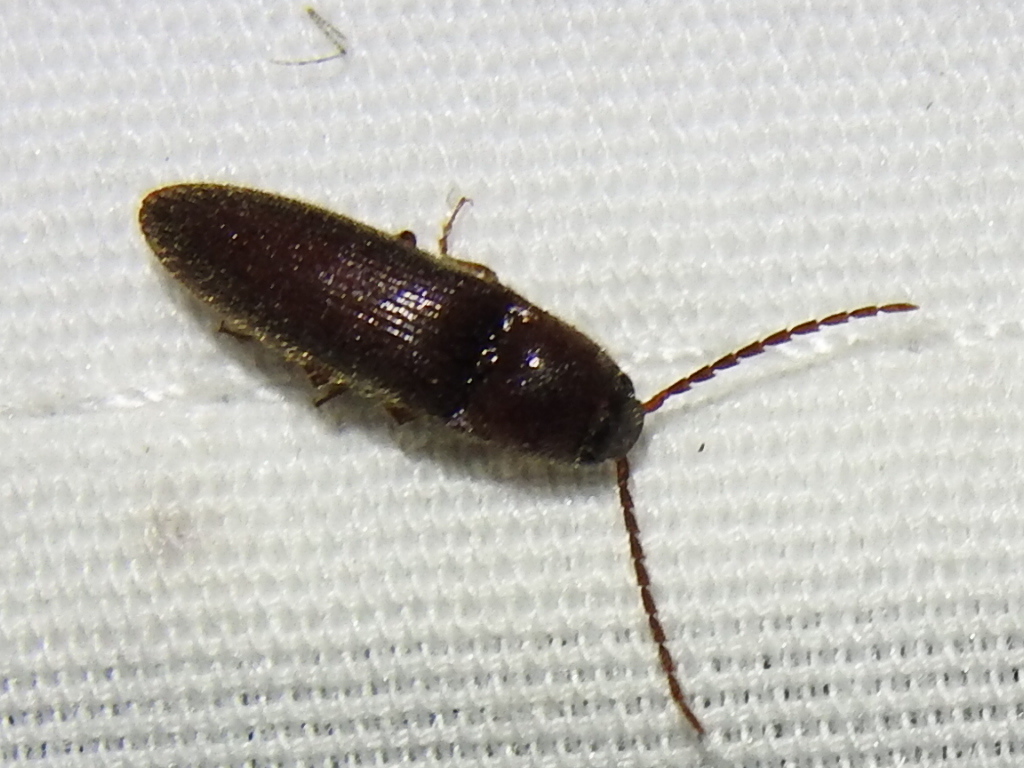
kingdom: Animalia
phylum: Arthropoda
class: Insecta
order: Coleoptera
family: Elateridae
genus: Dipropus
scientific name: Dipropus
